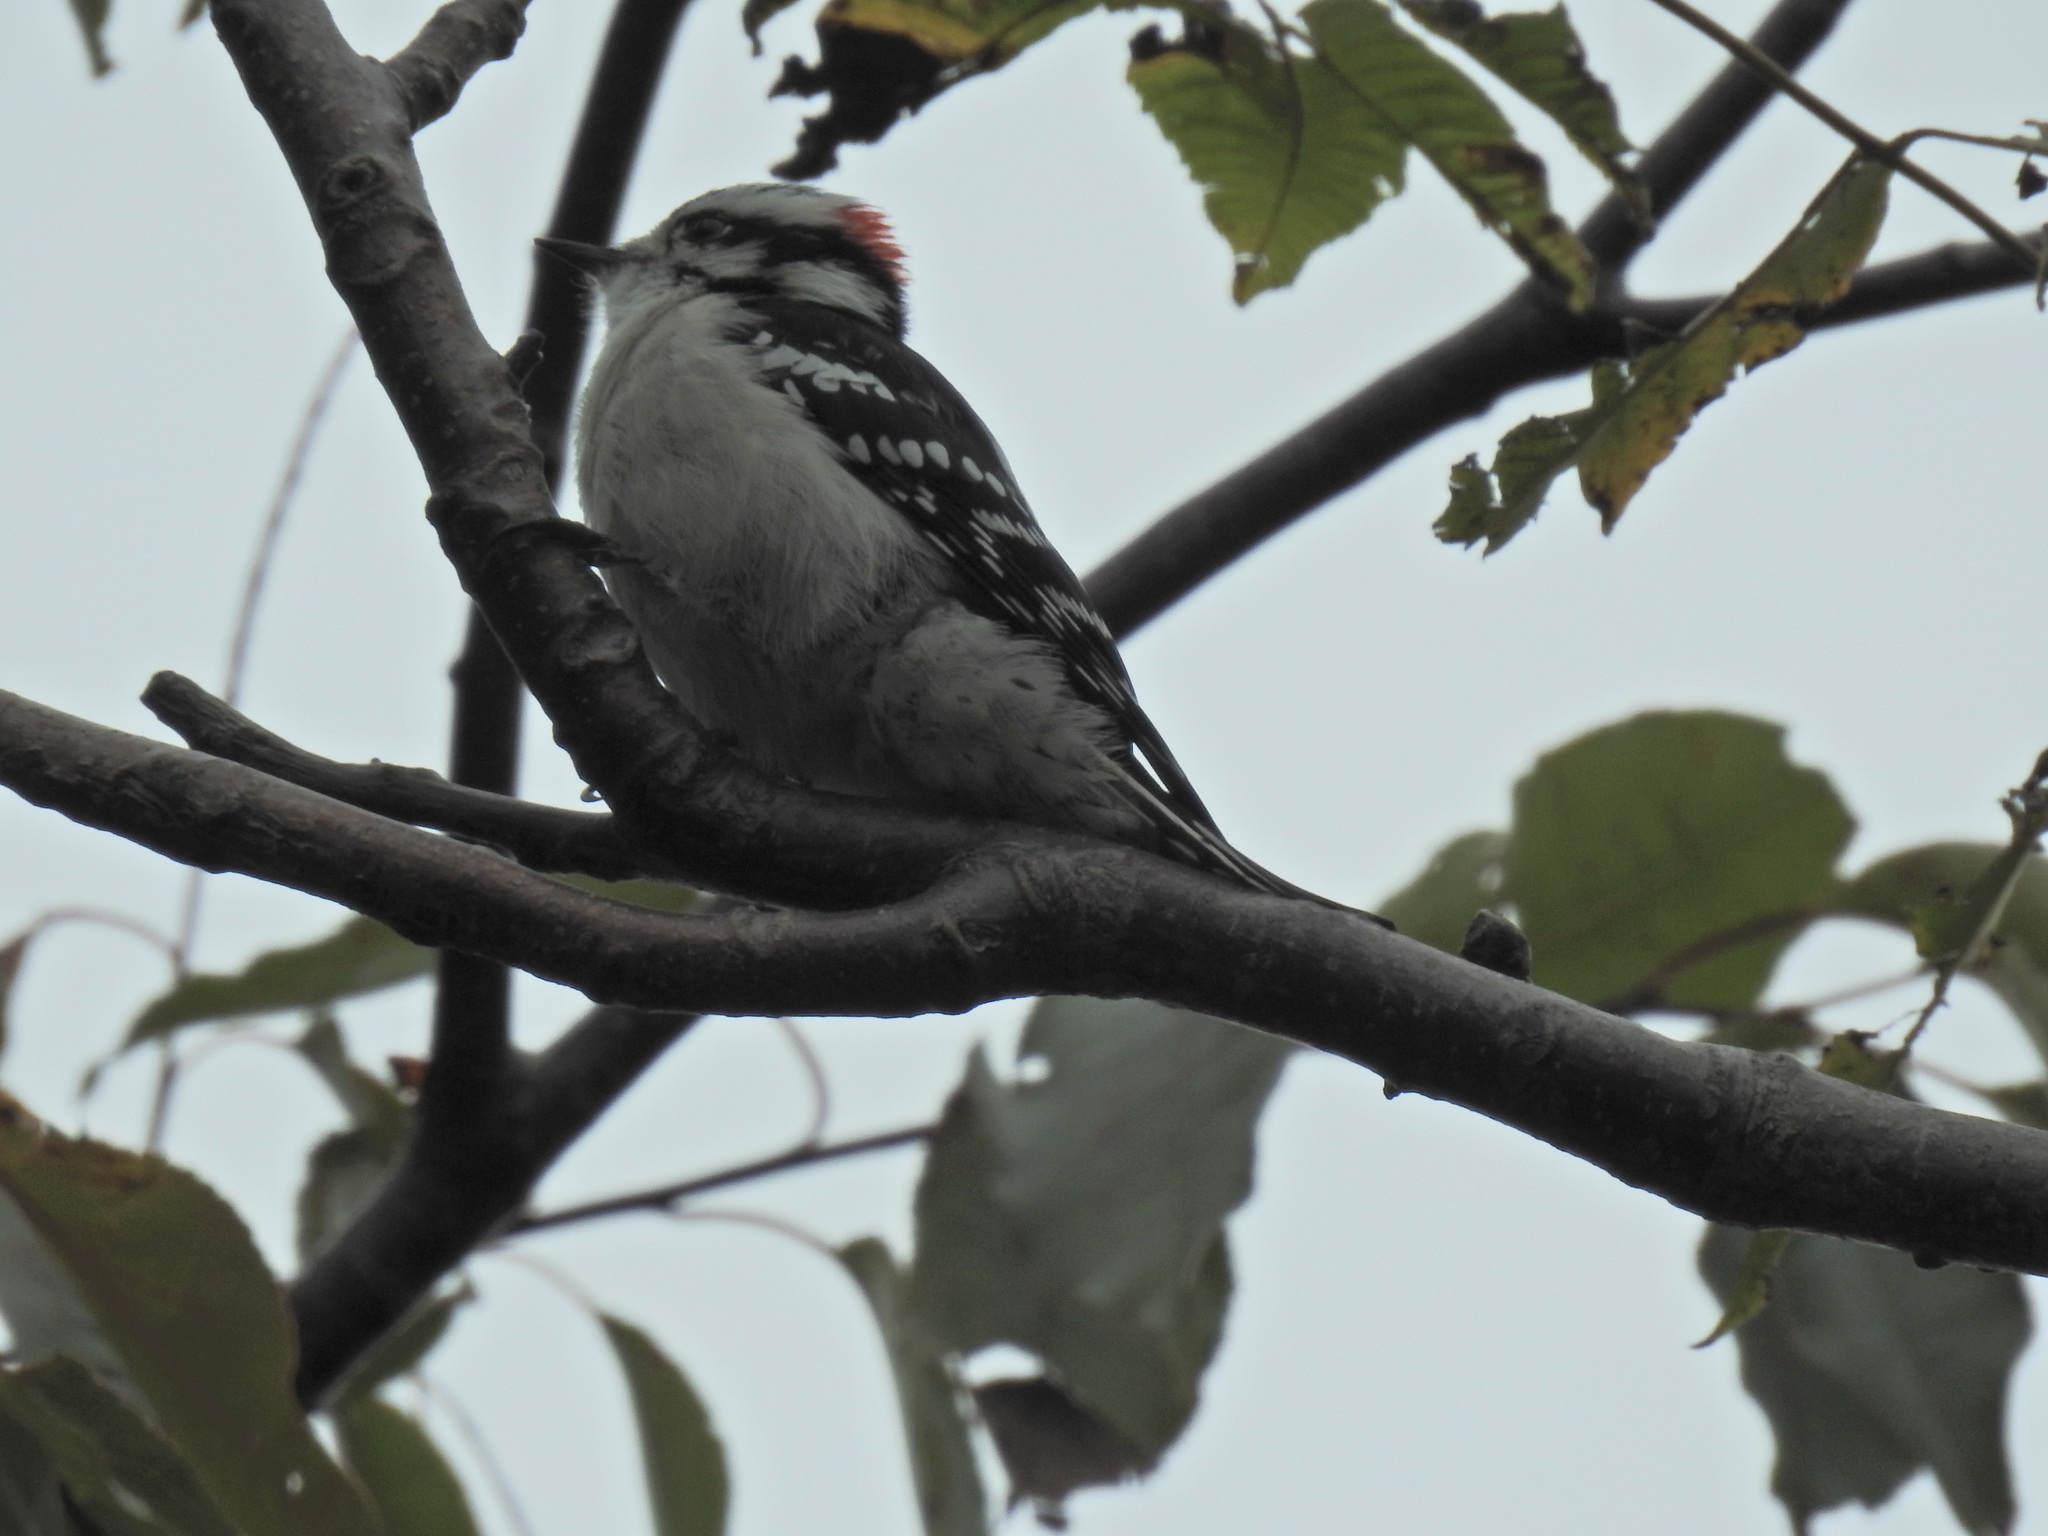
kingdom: Animalia
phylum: Chordata
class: Aves
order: Piciformes
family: Picidae
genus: Dryobates
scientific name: Dryobates pubescens
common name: Downy woodpecker
